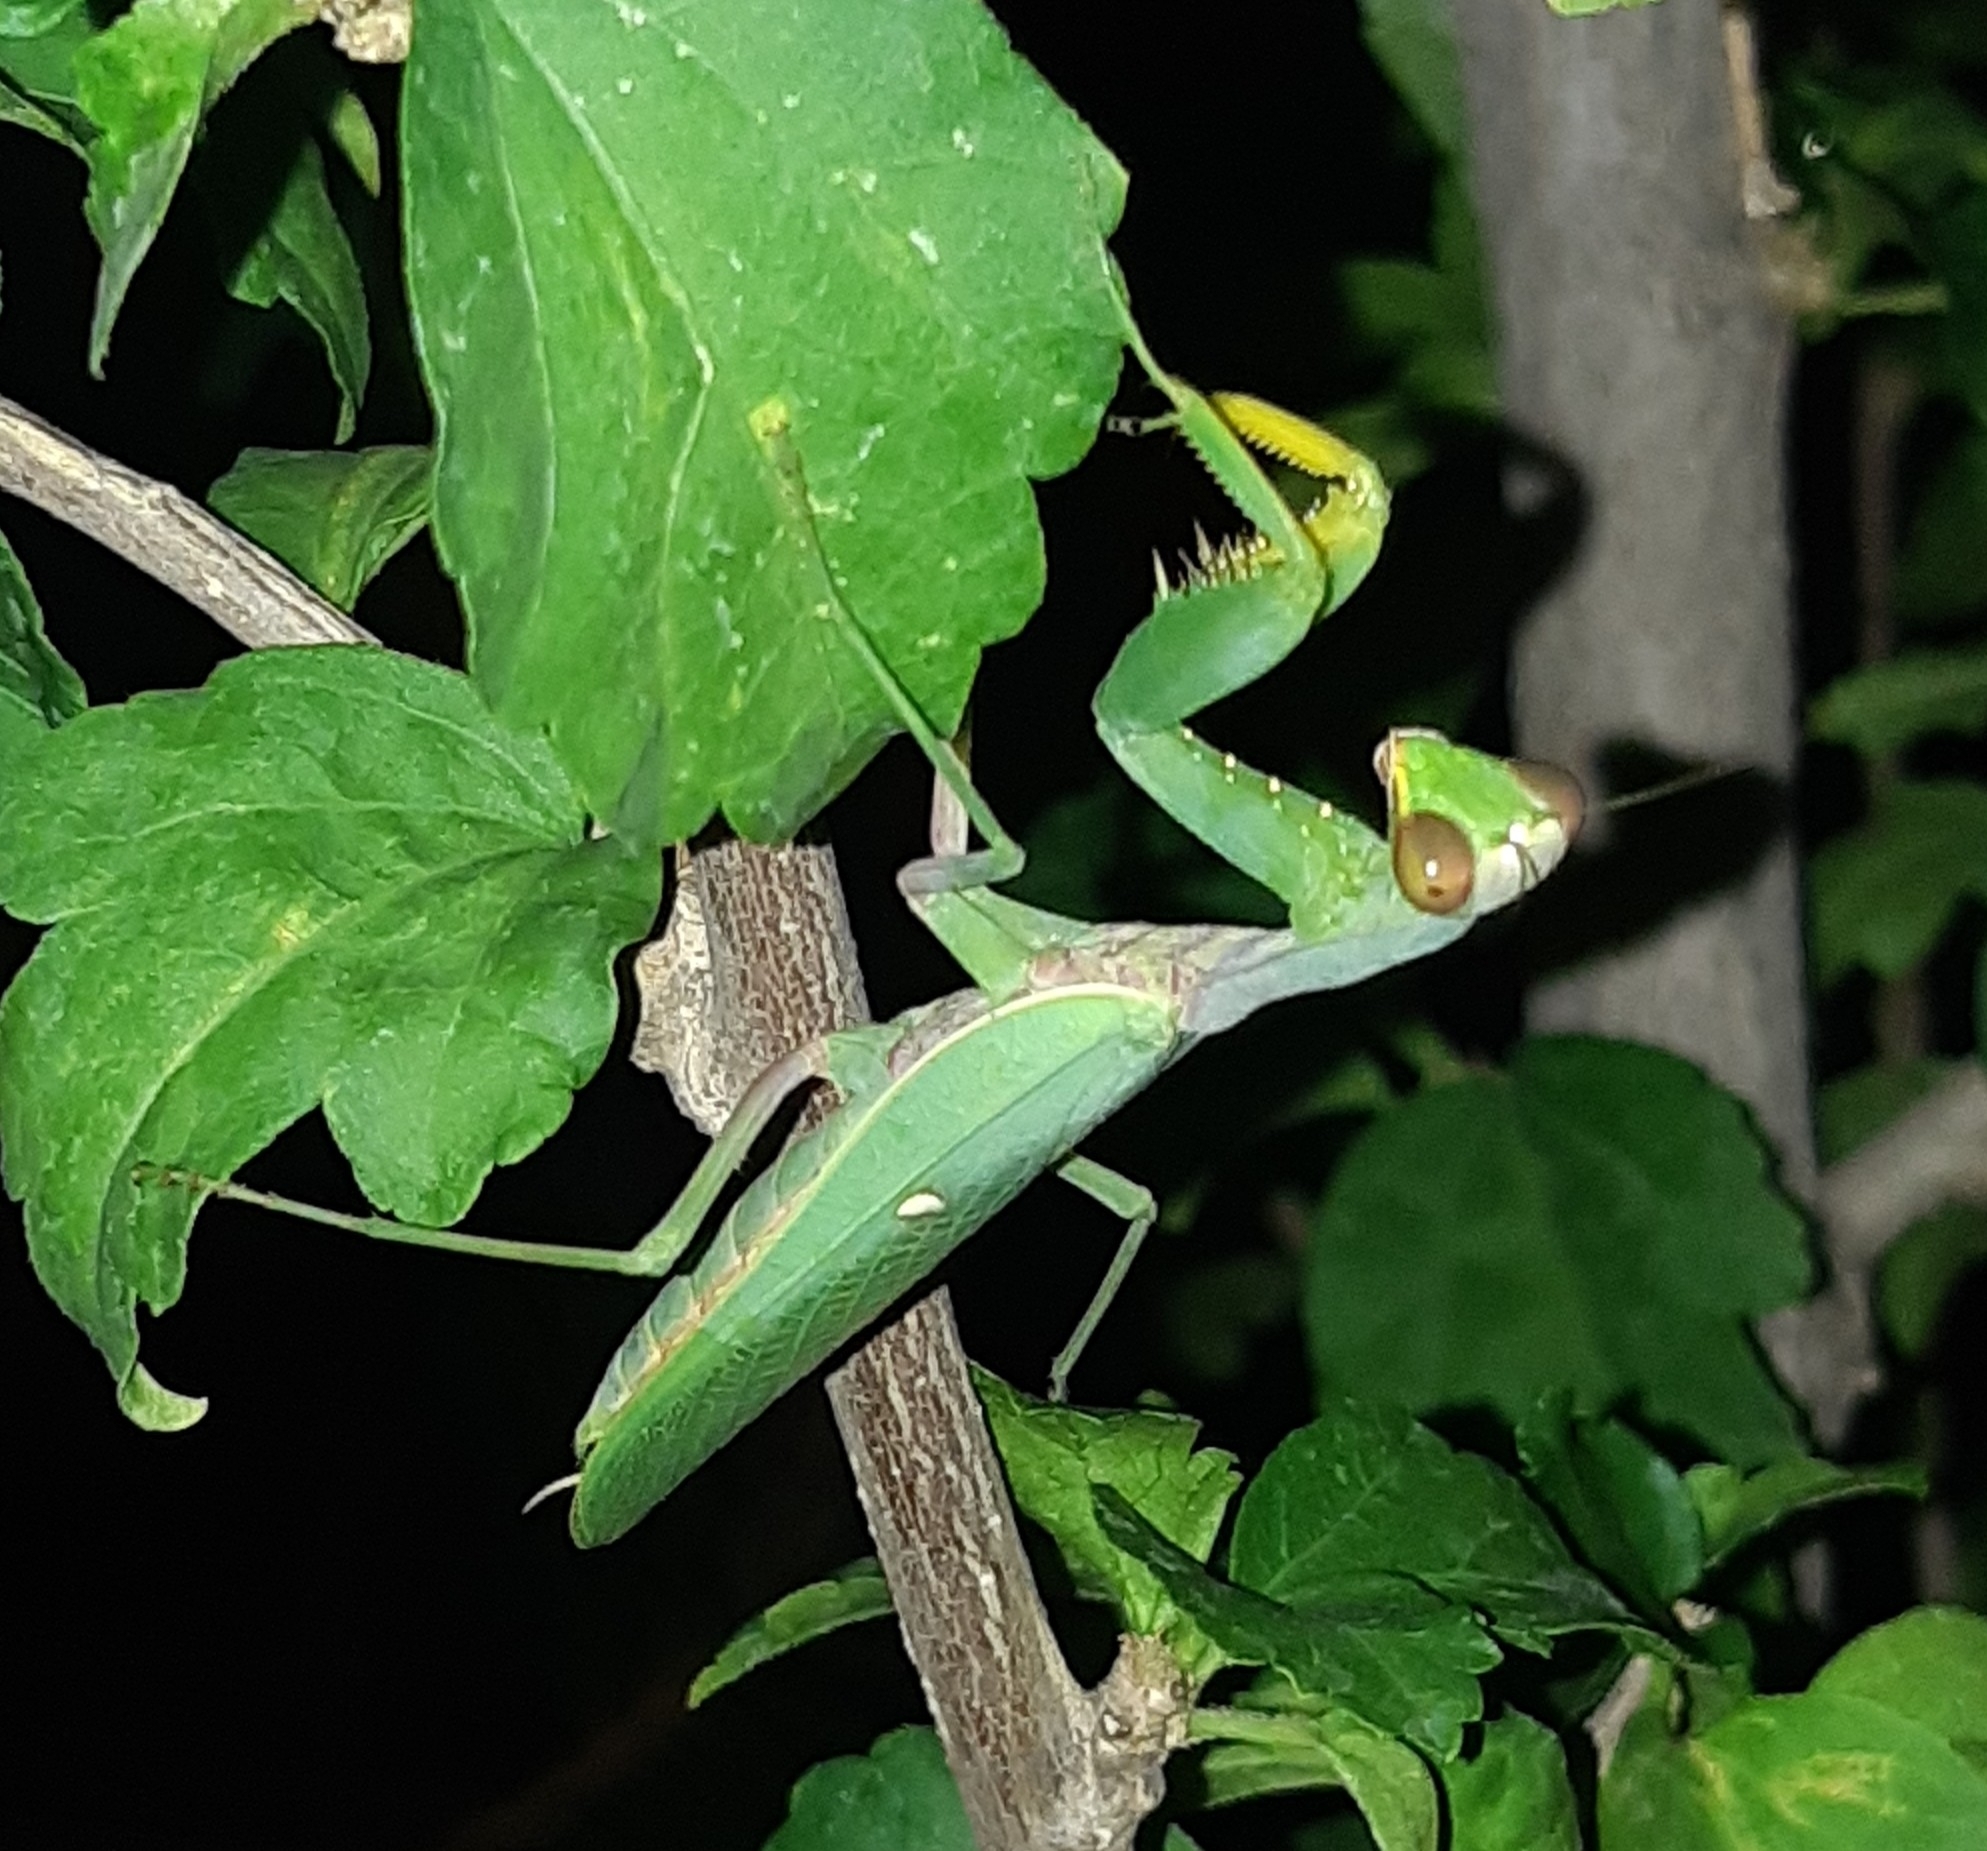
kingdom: Animalia
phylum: Arthropoda
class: Insecta
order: Mantodea
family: Mantidae
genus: Hierodula
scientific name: Hierodula tenuidentata
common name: Giant asian mantis
